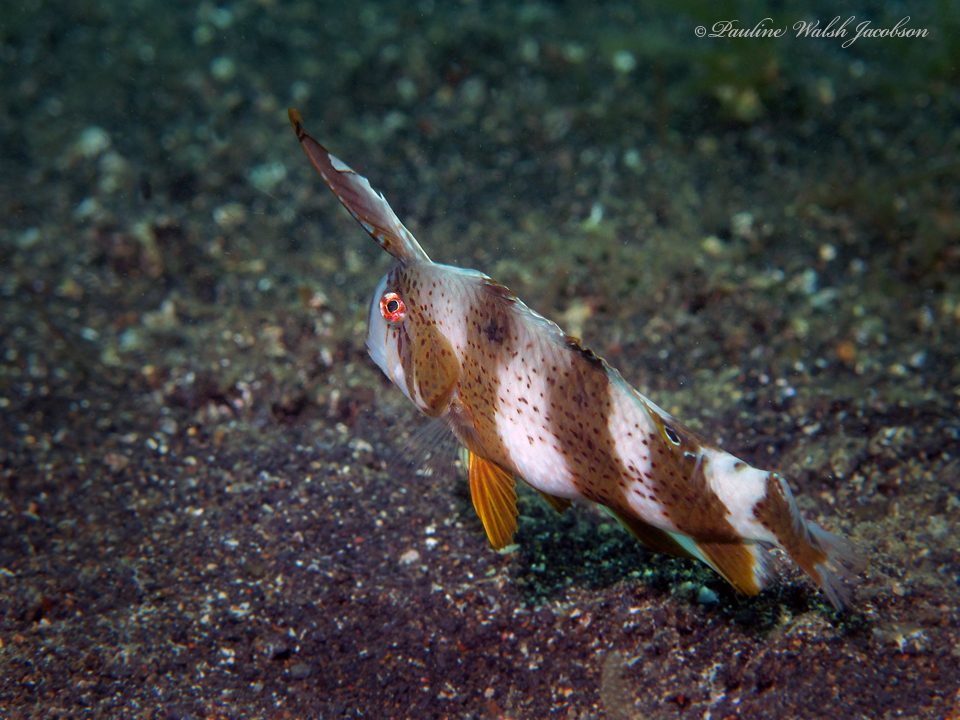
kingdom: Animalia
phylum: Chordata
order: Perciformes
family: Labridae
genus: Iniistius
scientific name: Iniistius pavo
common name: Peacock wrasse
